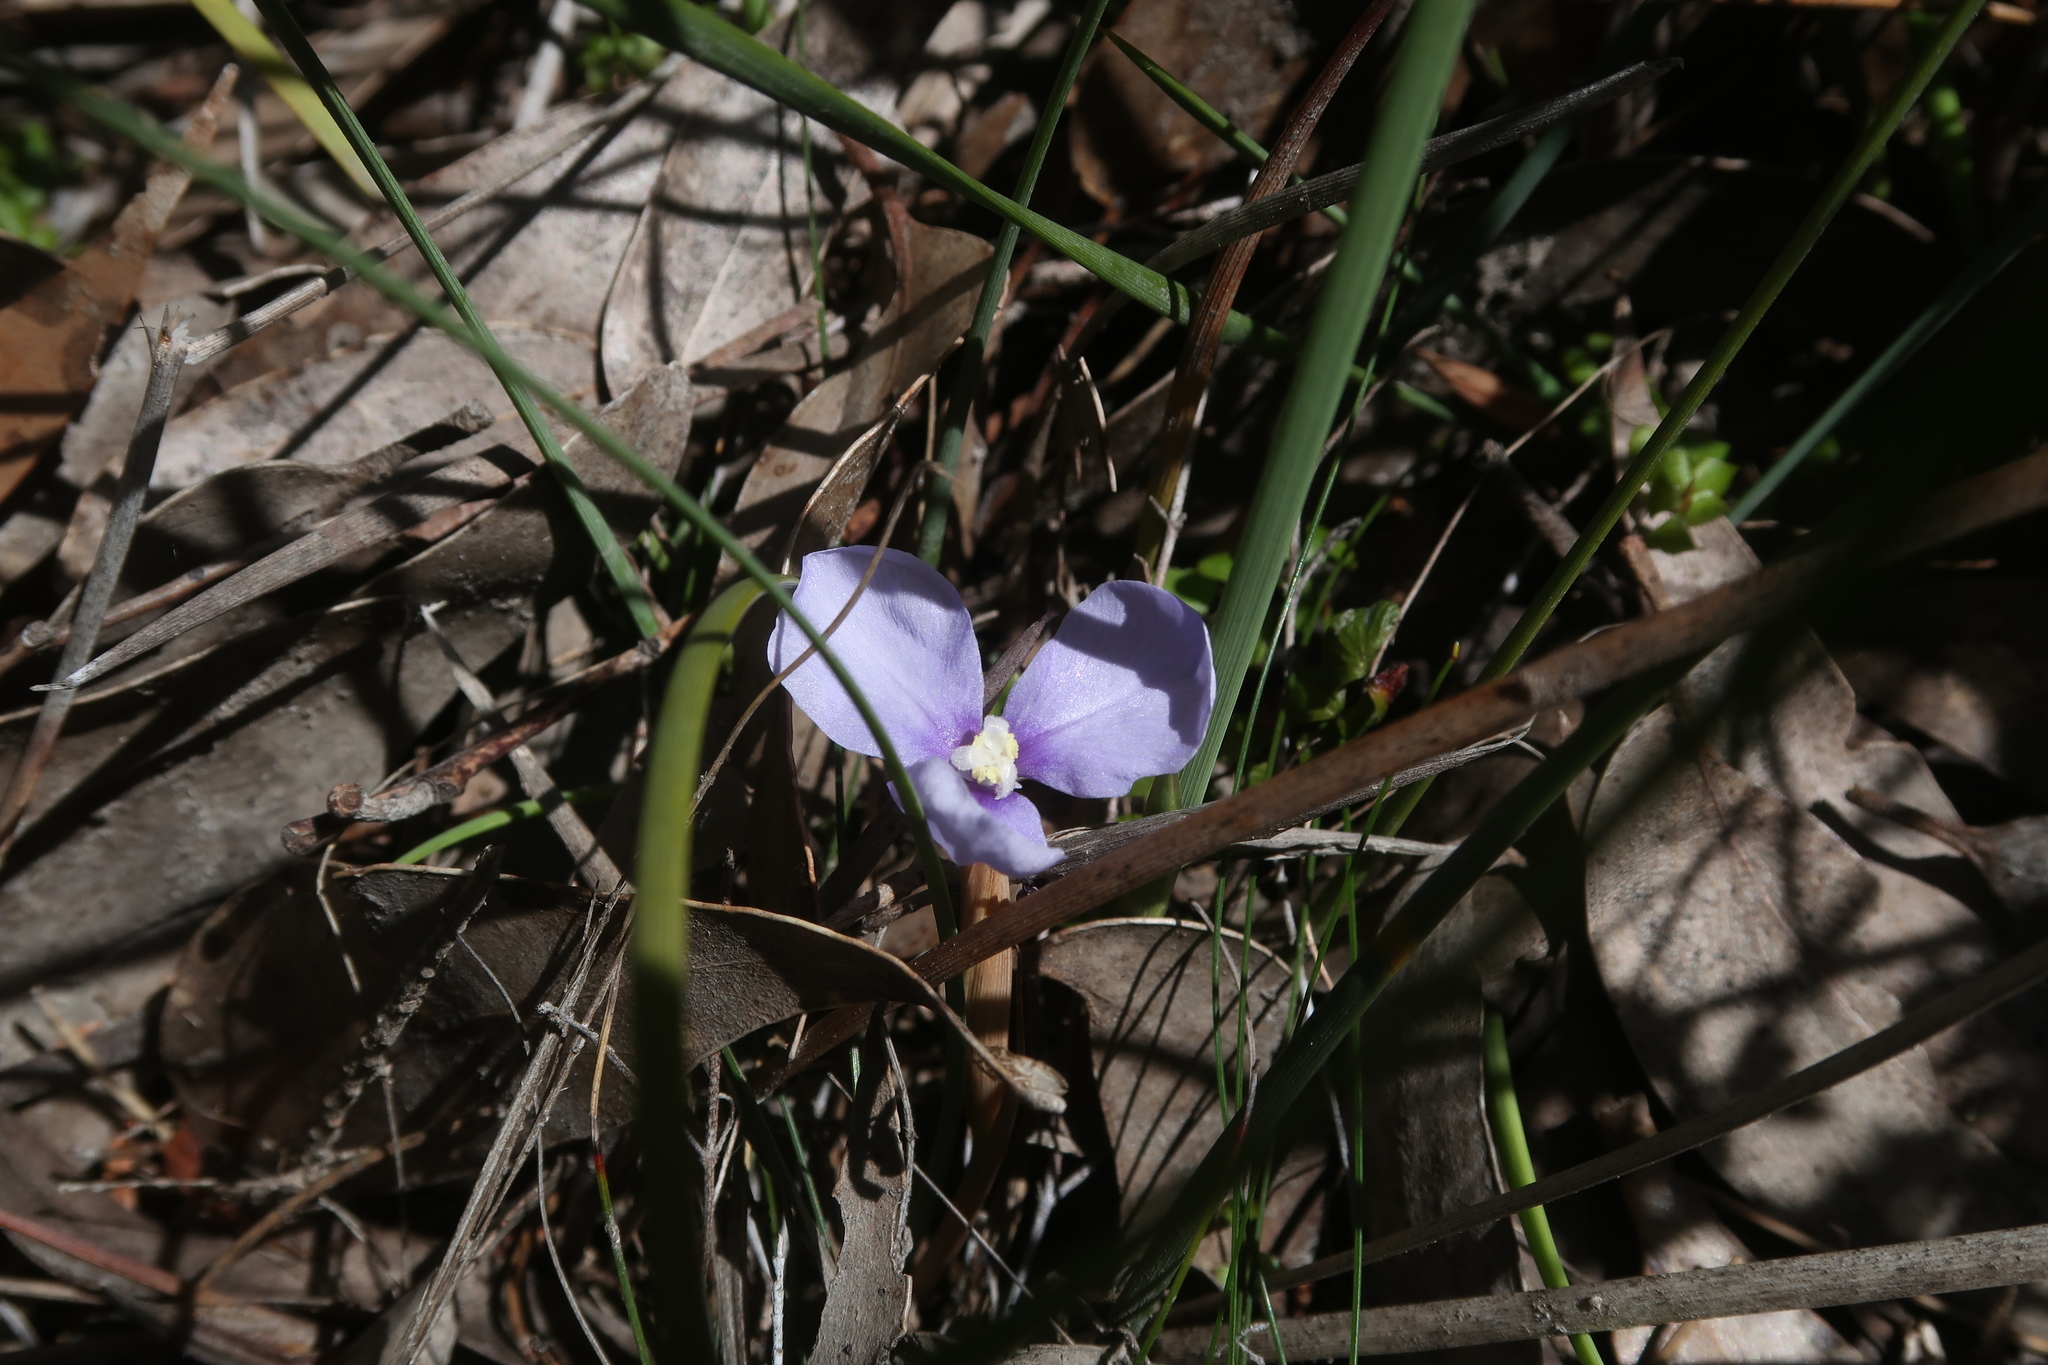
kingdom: Plantae
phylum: Tracheophyta
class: Liliopsida
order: Asparagales
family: Iridaceae
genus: Patersonia
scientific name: Patersonia fragilis
